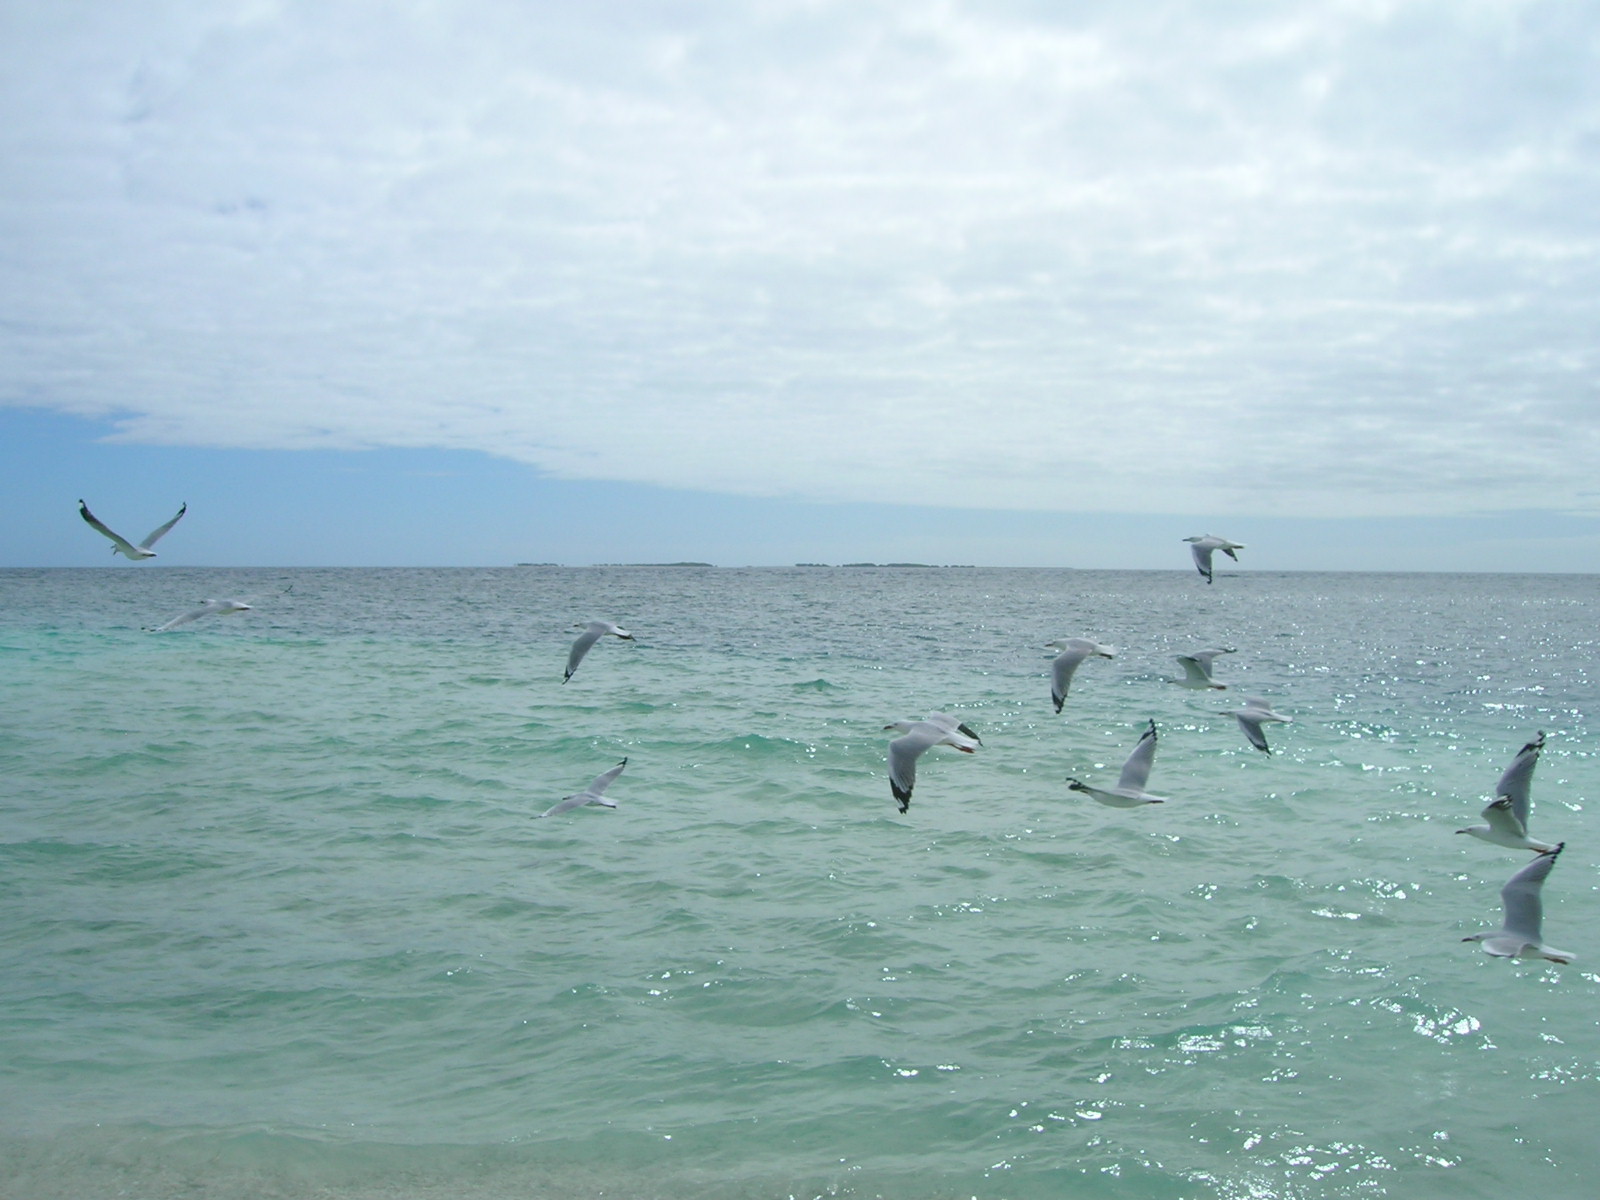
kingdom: Animalia
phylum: Chordata
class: Aves
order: Charadriiformes
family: Laridae
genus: Chroicocephalus
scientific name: Chroicocephalus novaehollandiae
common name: Silver gull
